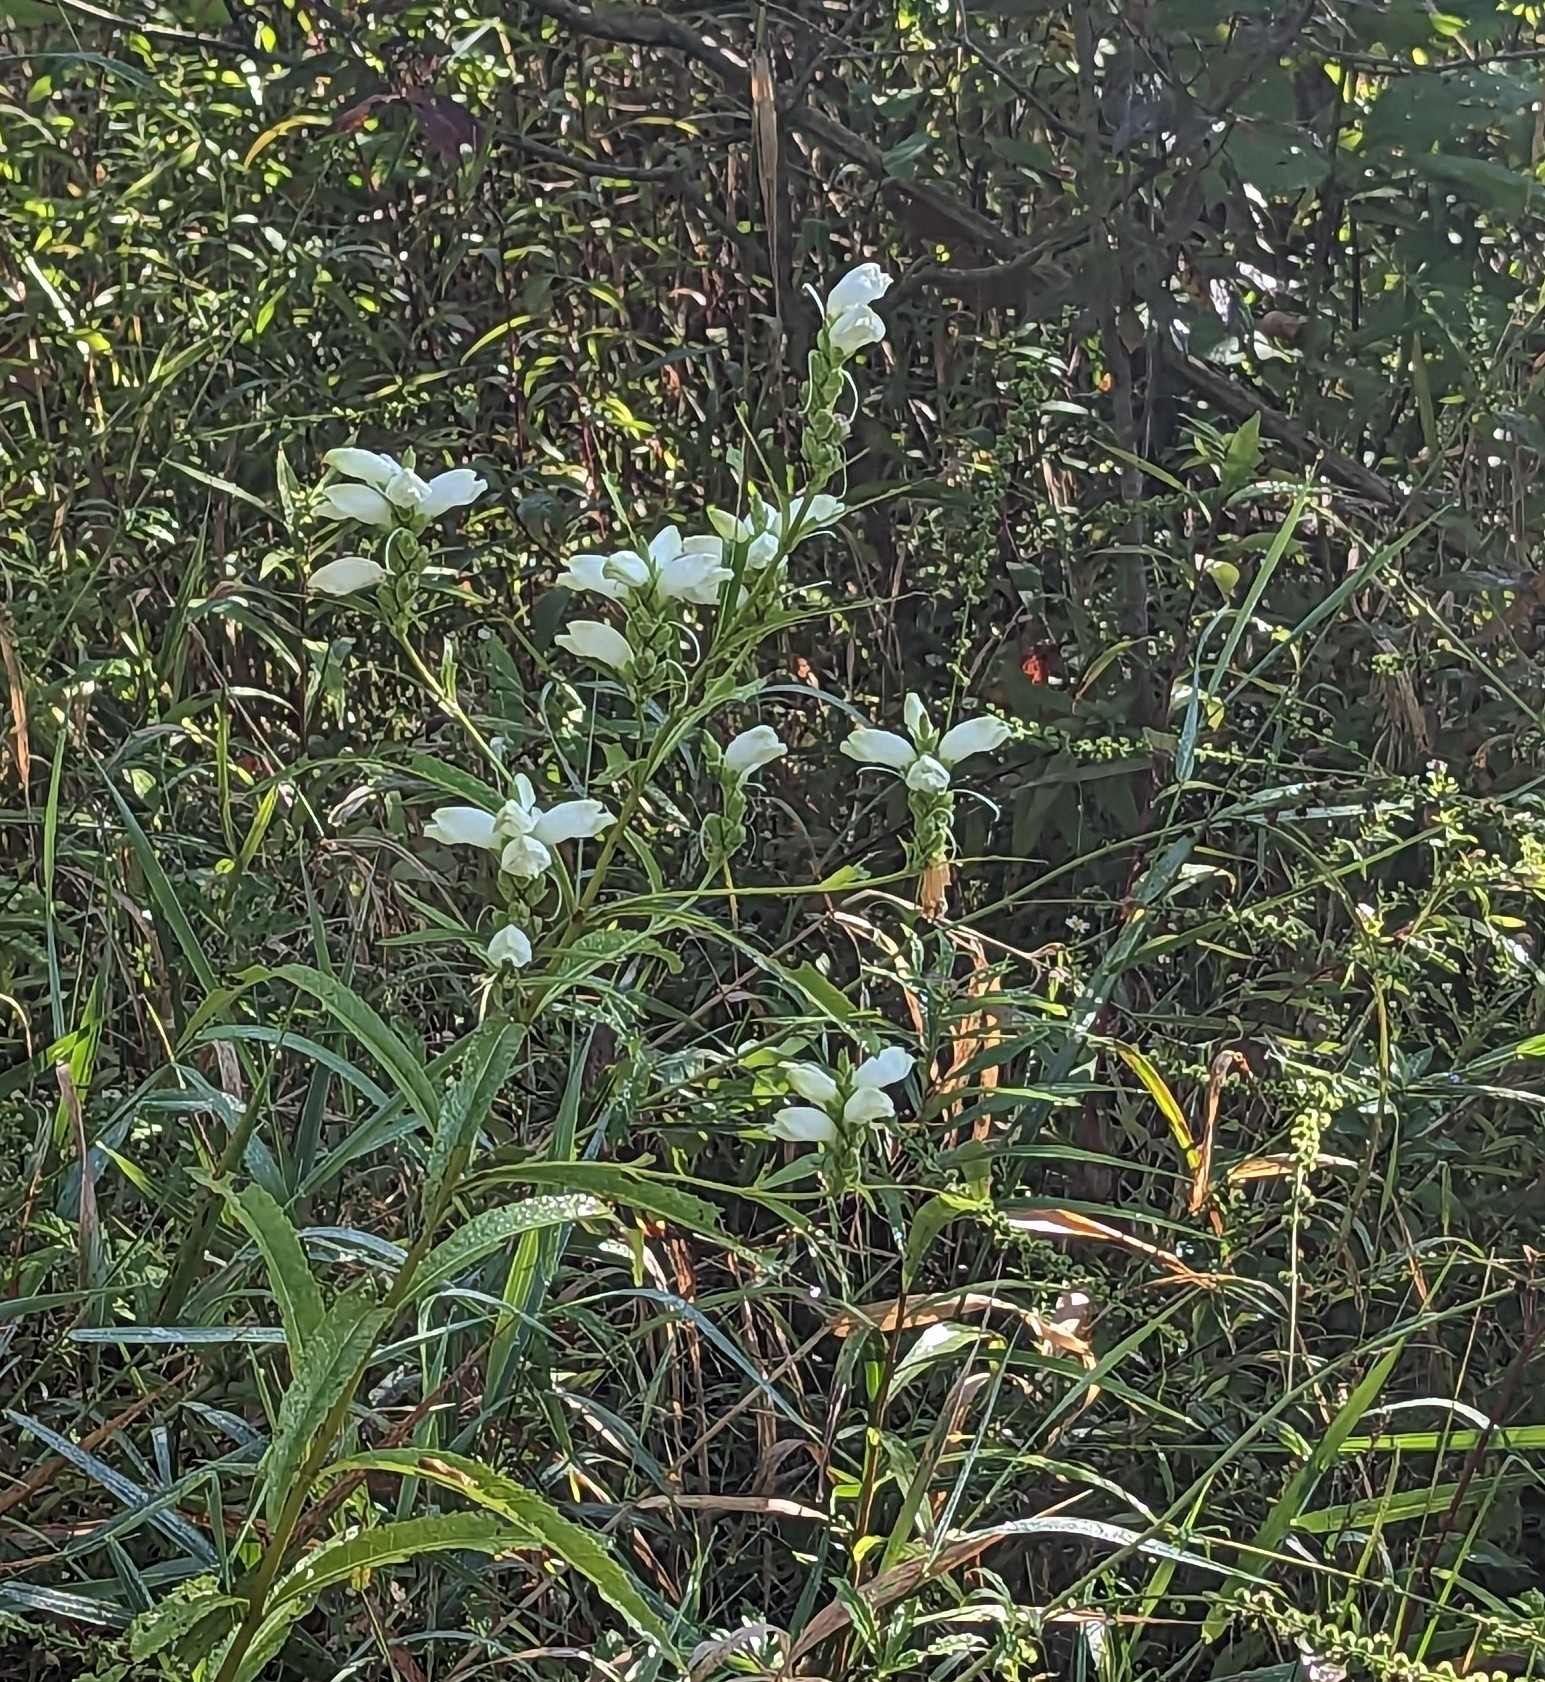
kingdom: Plantae
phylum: Tracheophyta
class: Magnoliopsida
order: Lamiales
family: Plantaginaceae
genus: Chelone
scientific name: Chelone glabra
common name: Snakehead
